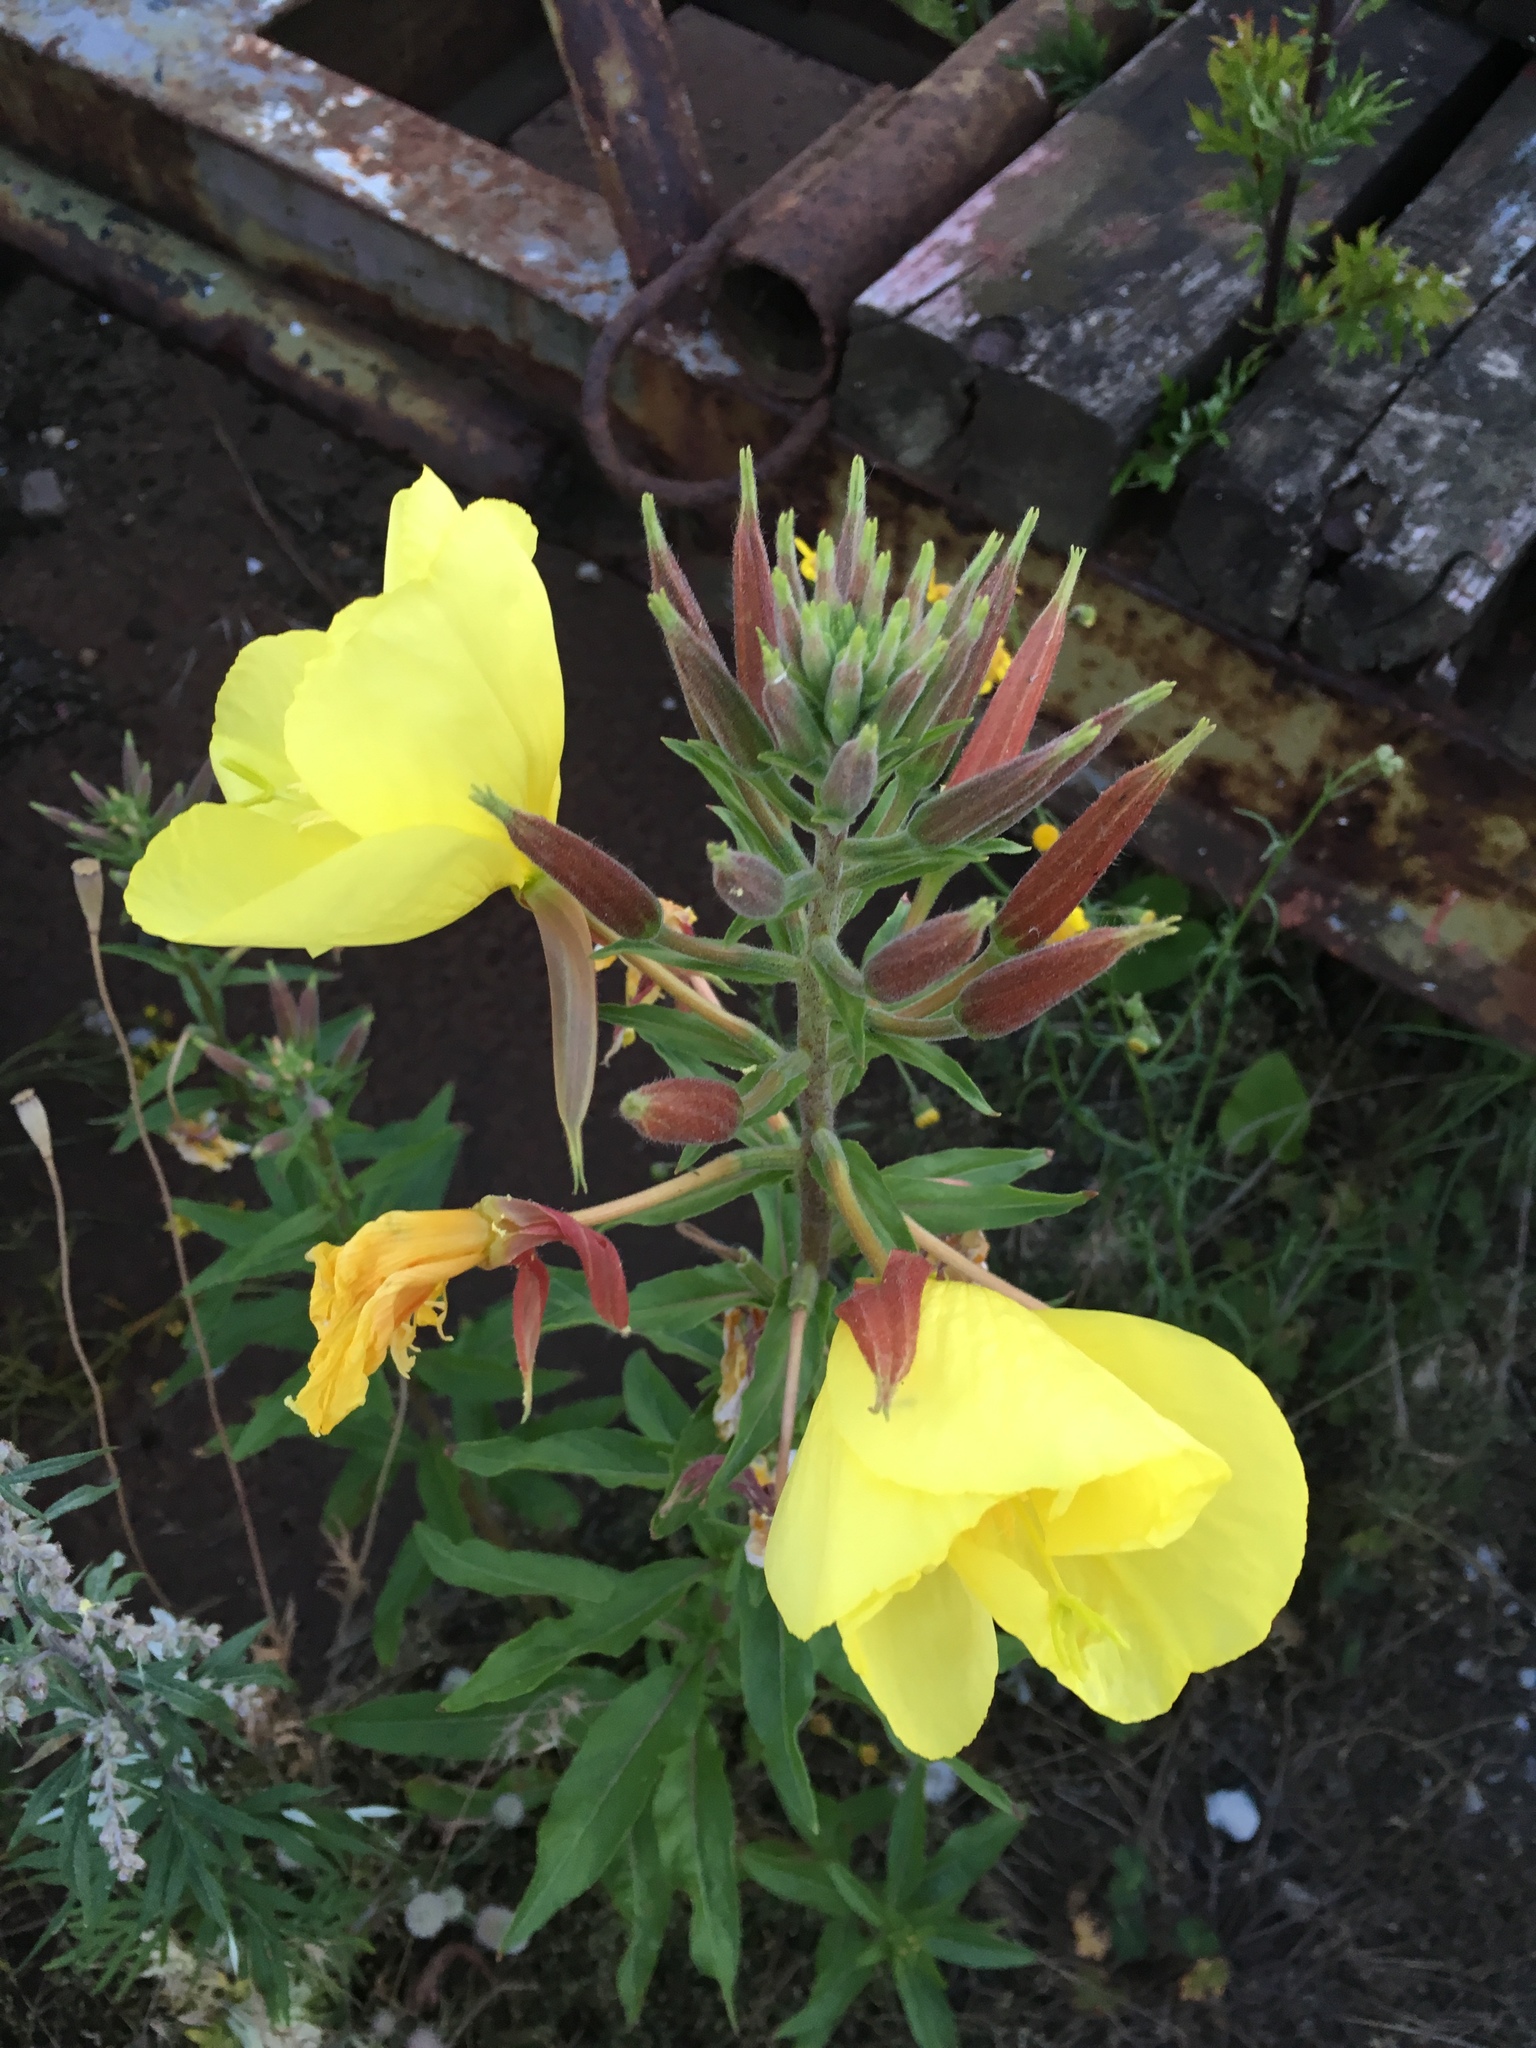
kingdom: Plantae
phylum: Tracheophyta
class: Magnoliopsida
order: Myrtales
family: Onagraceae
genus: Oenothera
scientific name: Oenothera glazioviana
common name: Large-flowered evening-primrose
